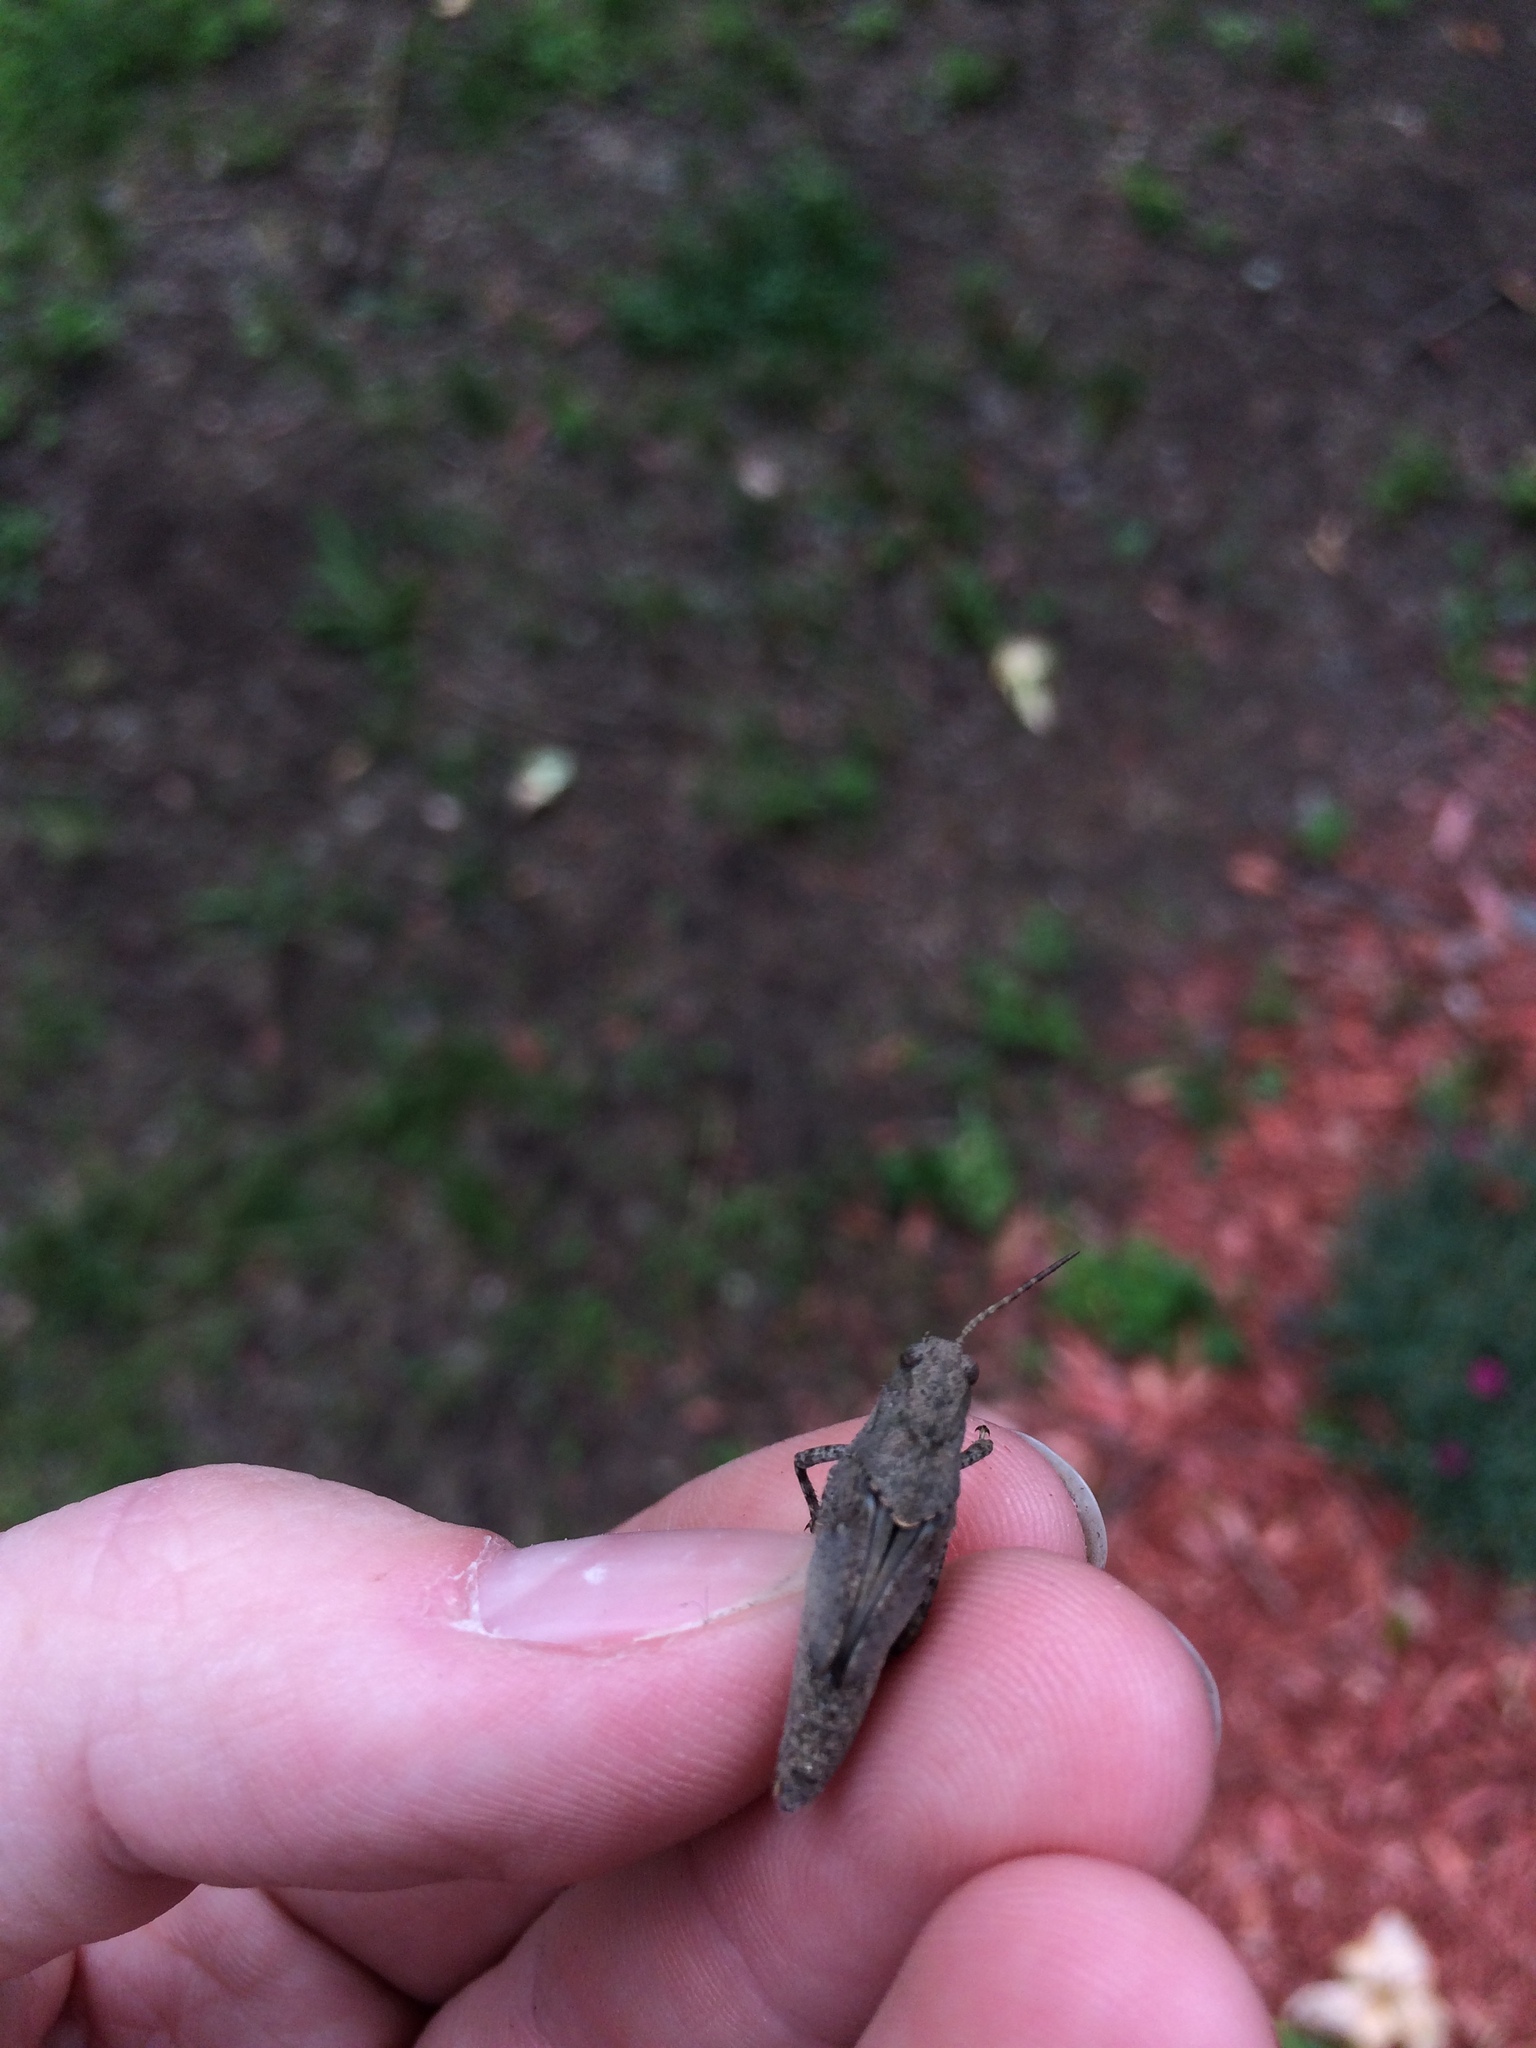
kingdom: Animalia
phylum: Arthropoda
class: Insecta
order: Orthoptera
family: Acrididae
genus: Dissosteira
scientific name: Dissosteira carolina
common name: Carolina grasshopper
